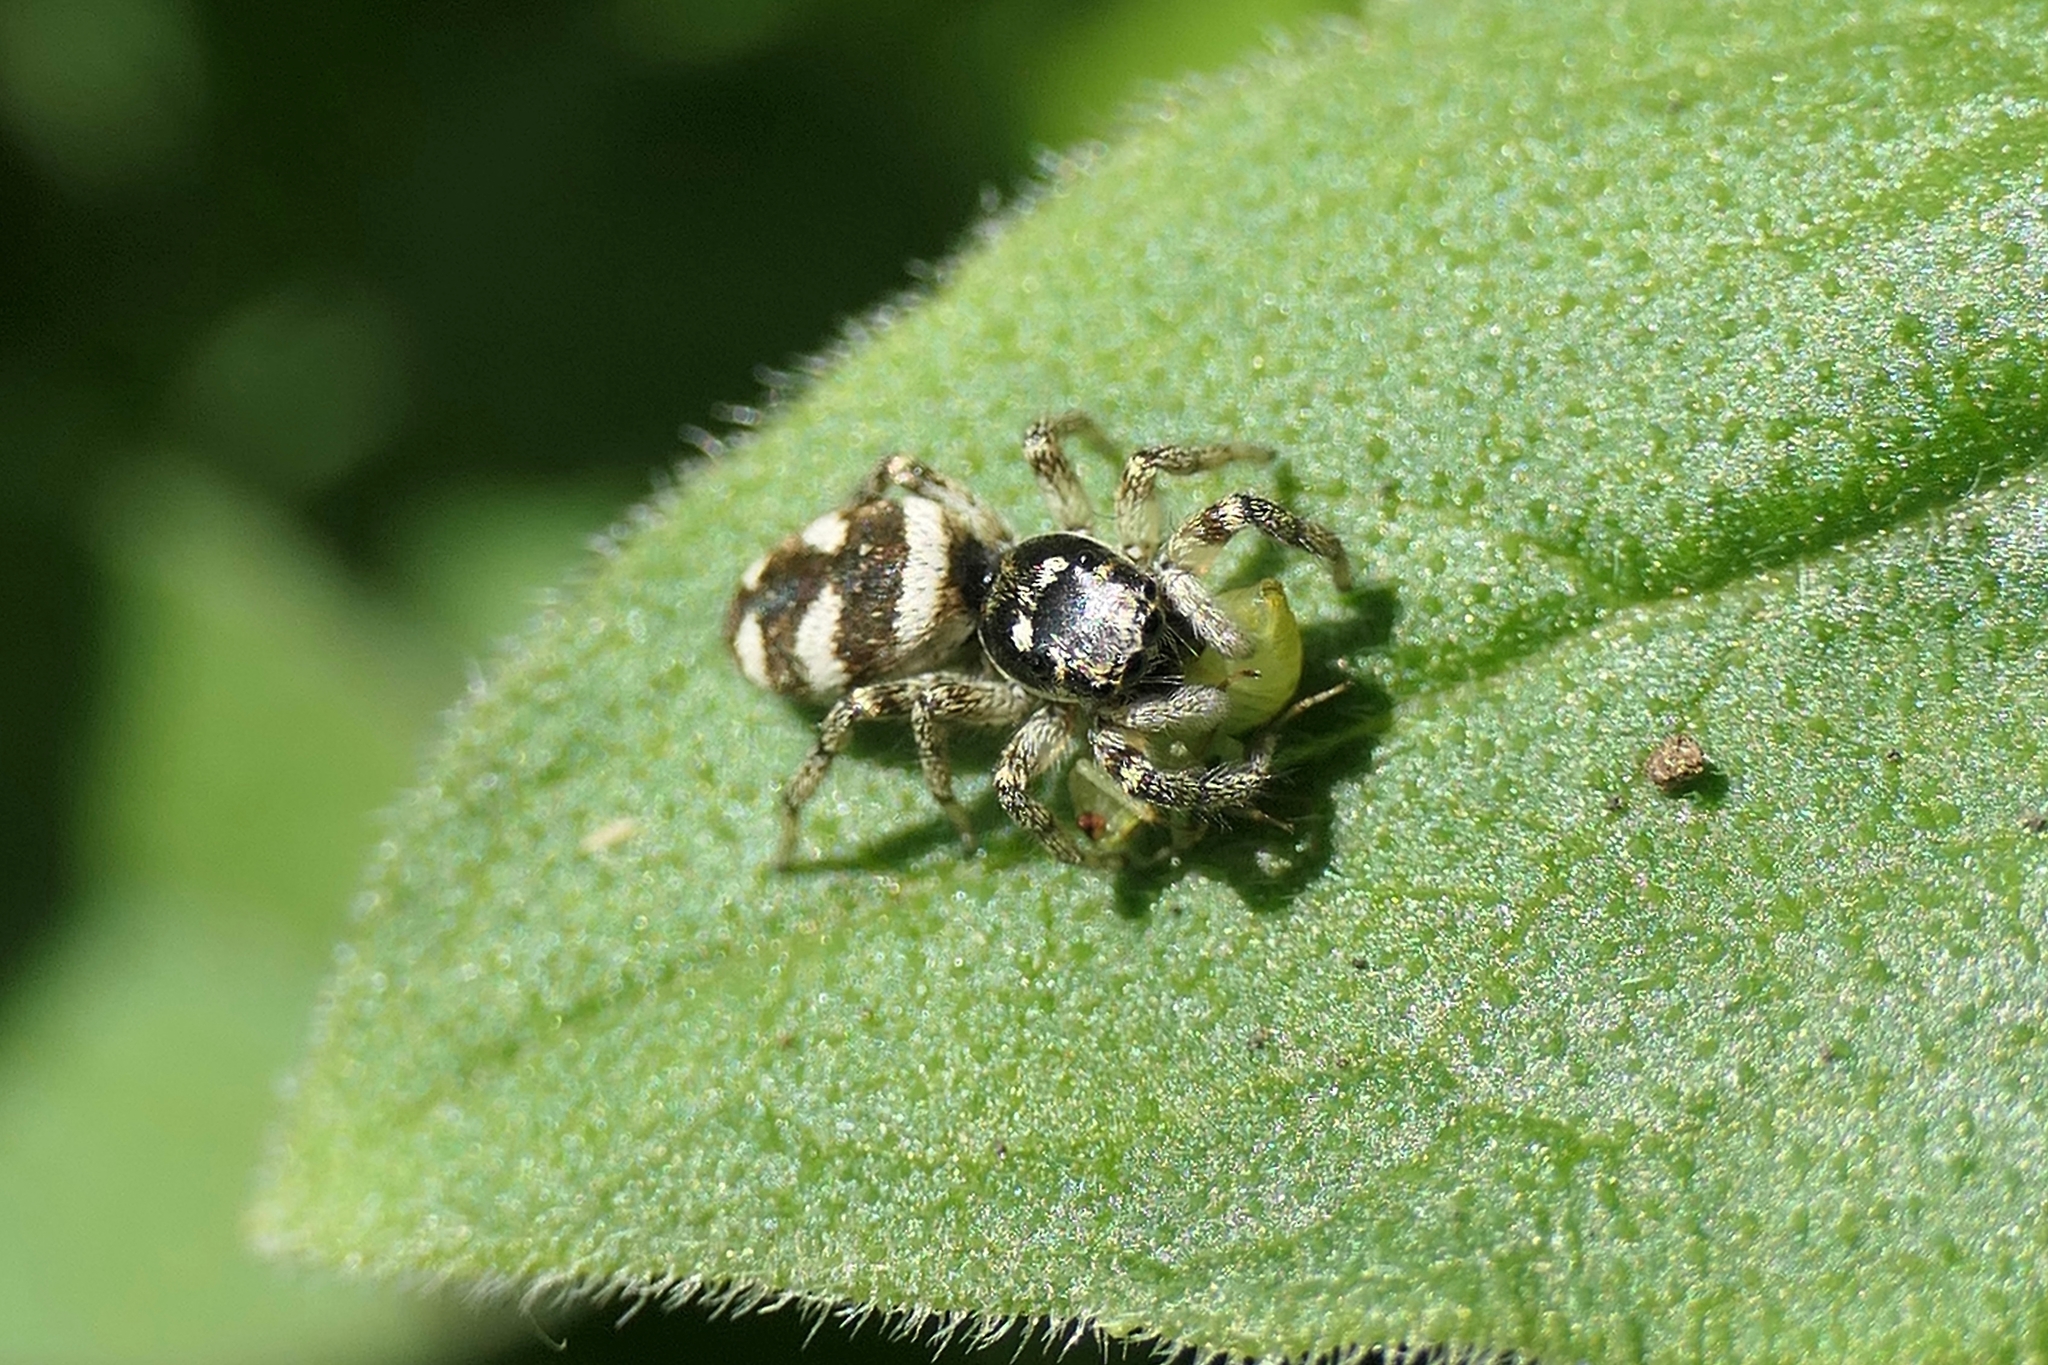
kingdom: Animalia
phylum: Arthropoda
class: Arachnida
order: Araneae
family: Salticidae
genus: Salticus
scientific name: Salticus scenicus
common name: Zebra jumper
